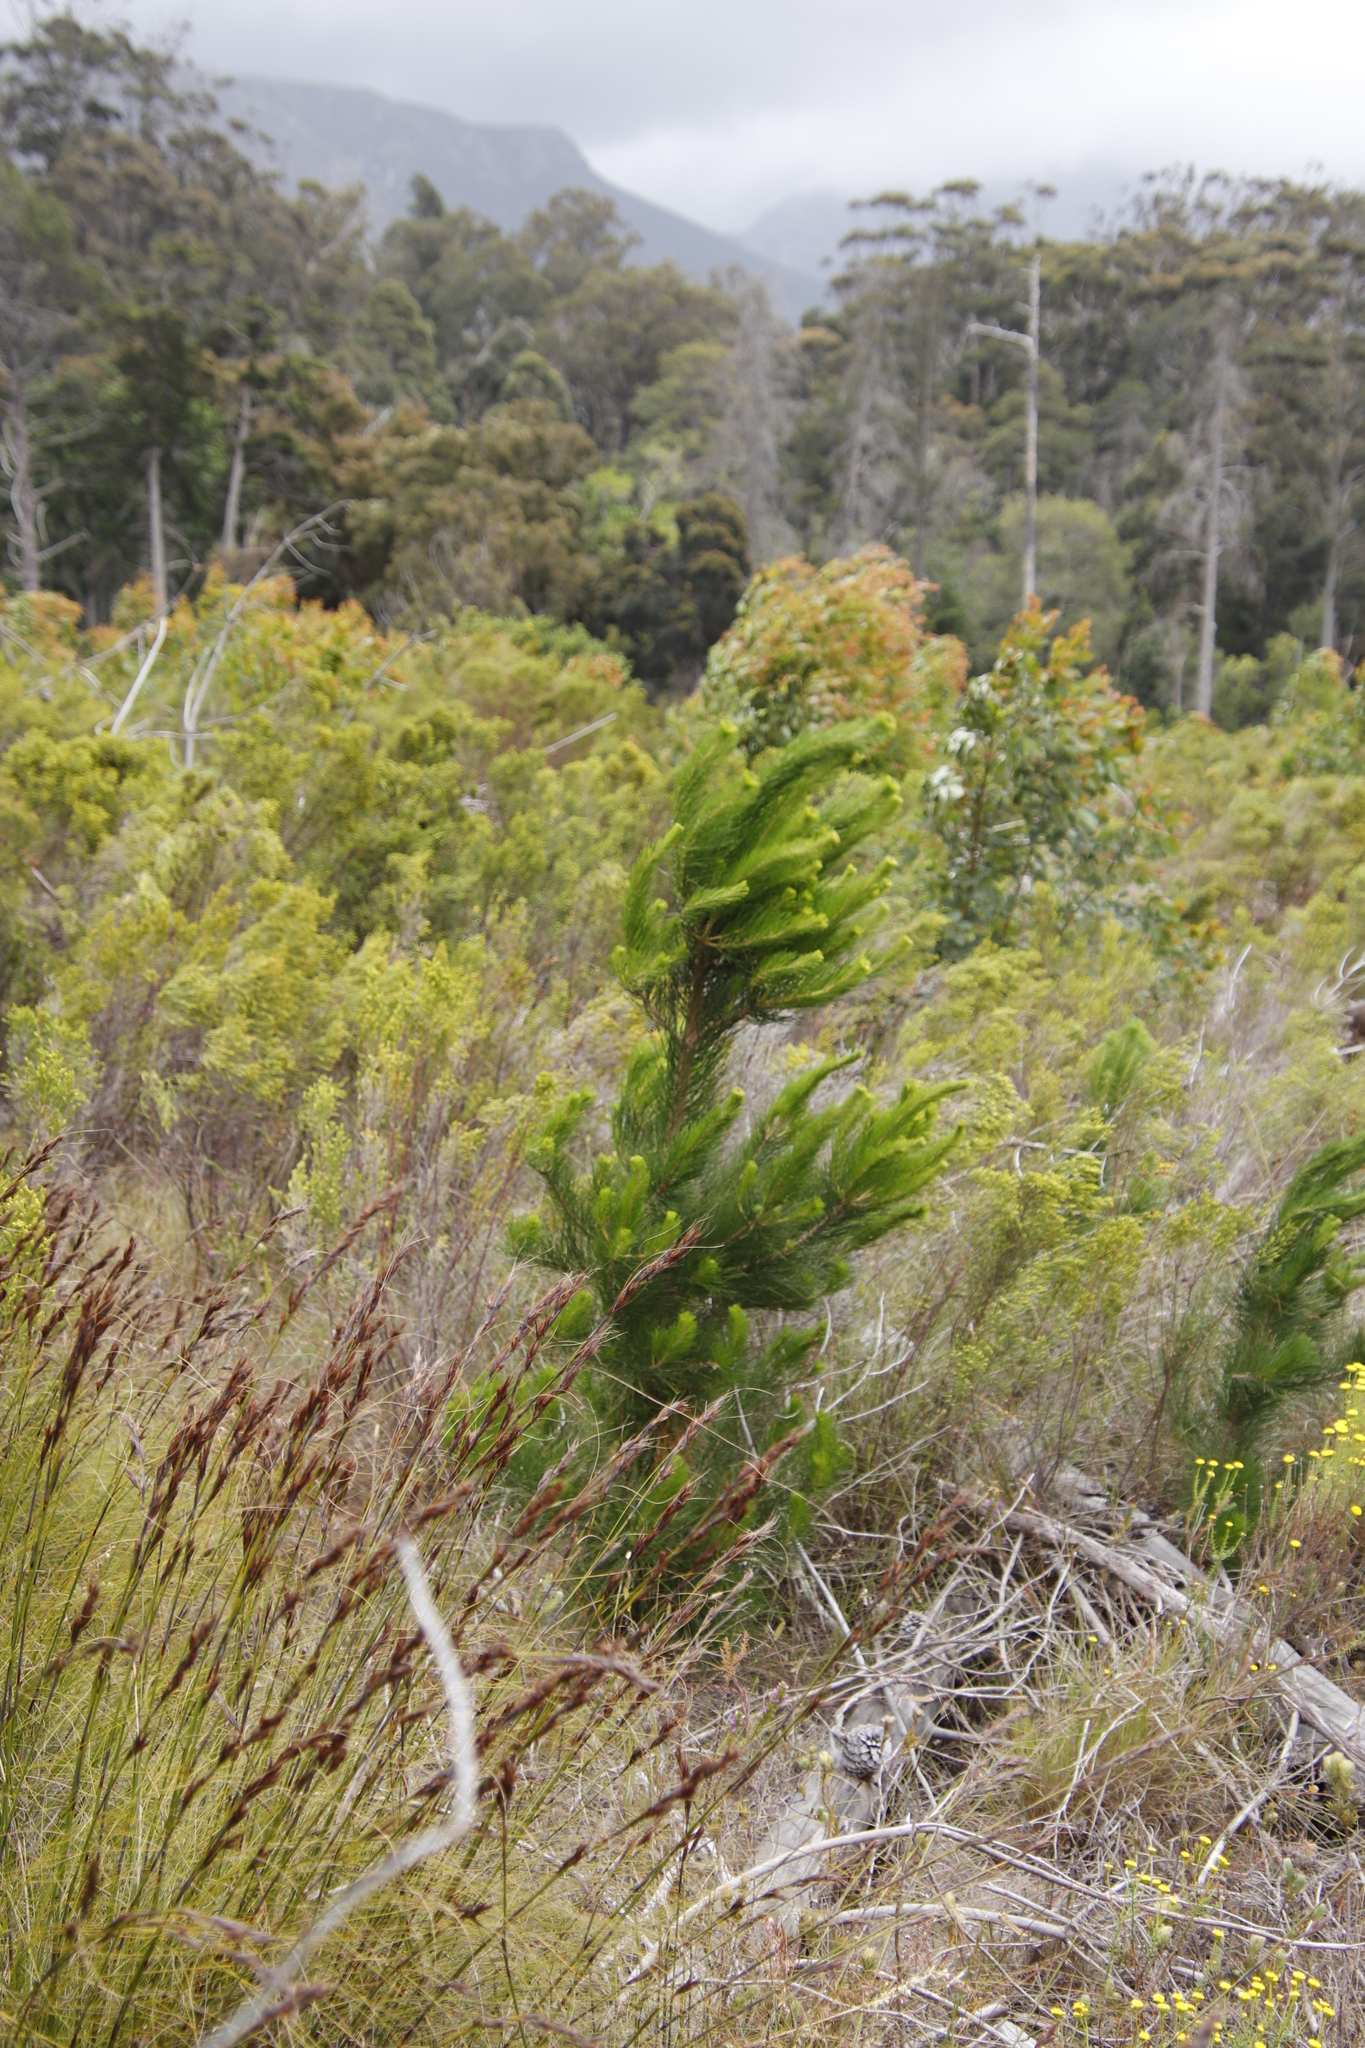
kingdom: Plantae
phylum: Tracheophyta
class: Pinopsida
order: Pinales
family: Pinaceae
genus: Pinus
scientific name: Pinus radiata
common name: Monterey pine
